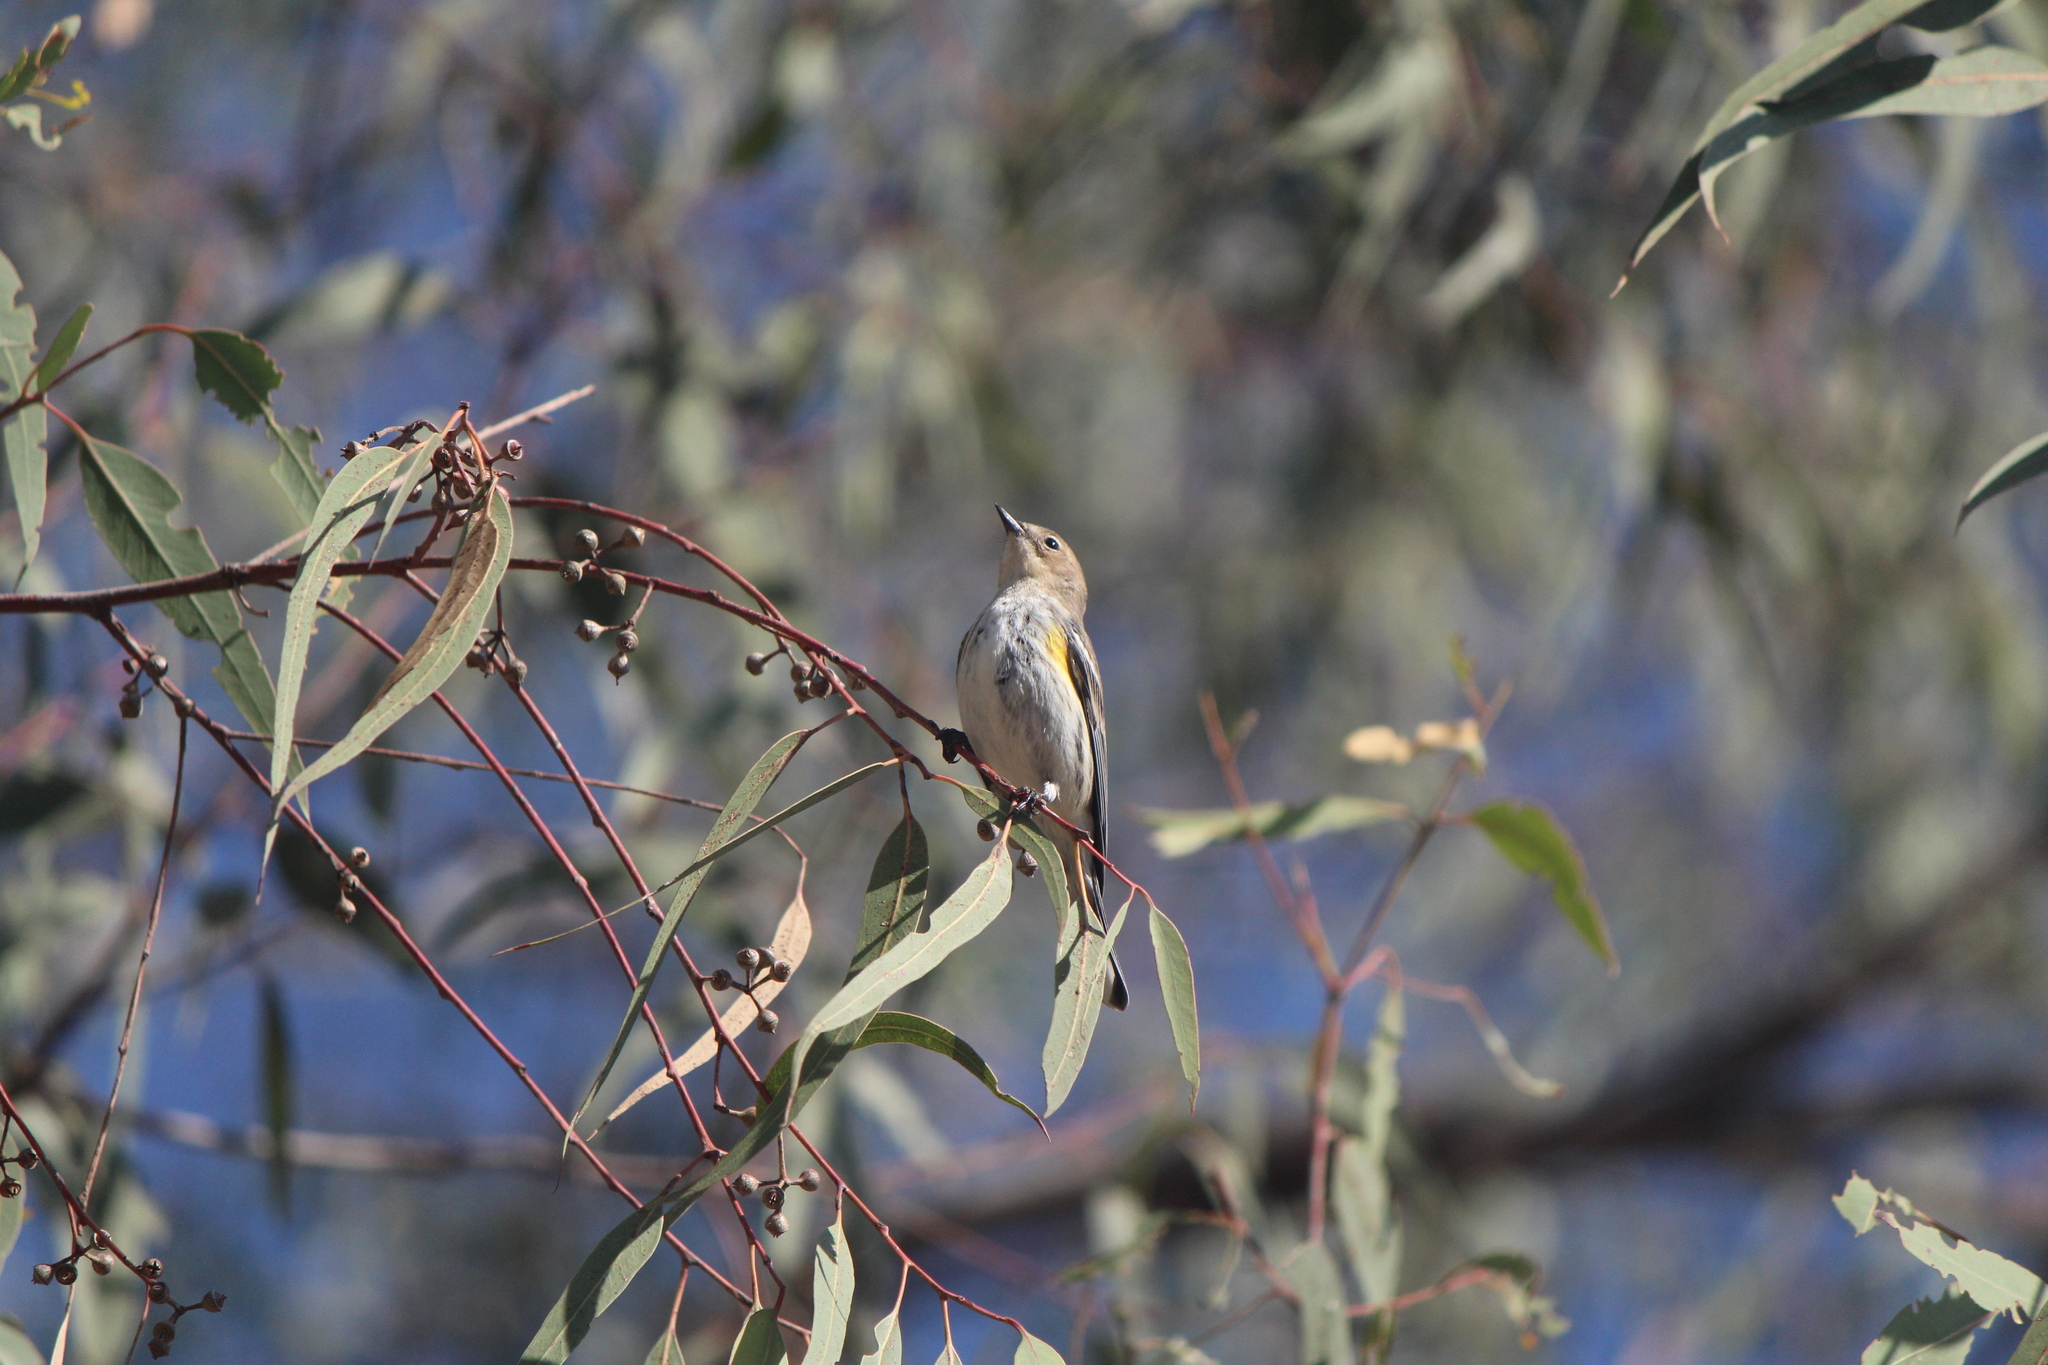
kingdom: Animalia
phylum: Chordata
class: Aves
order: Passeriformes
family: Parulidae
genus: Setophaga
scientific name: Setophaga coronata
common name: Myrtle warbler
